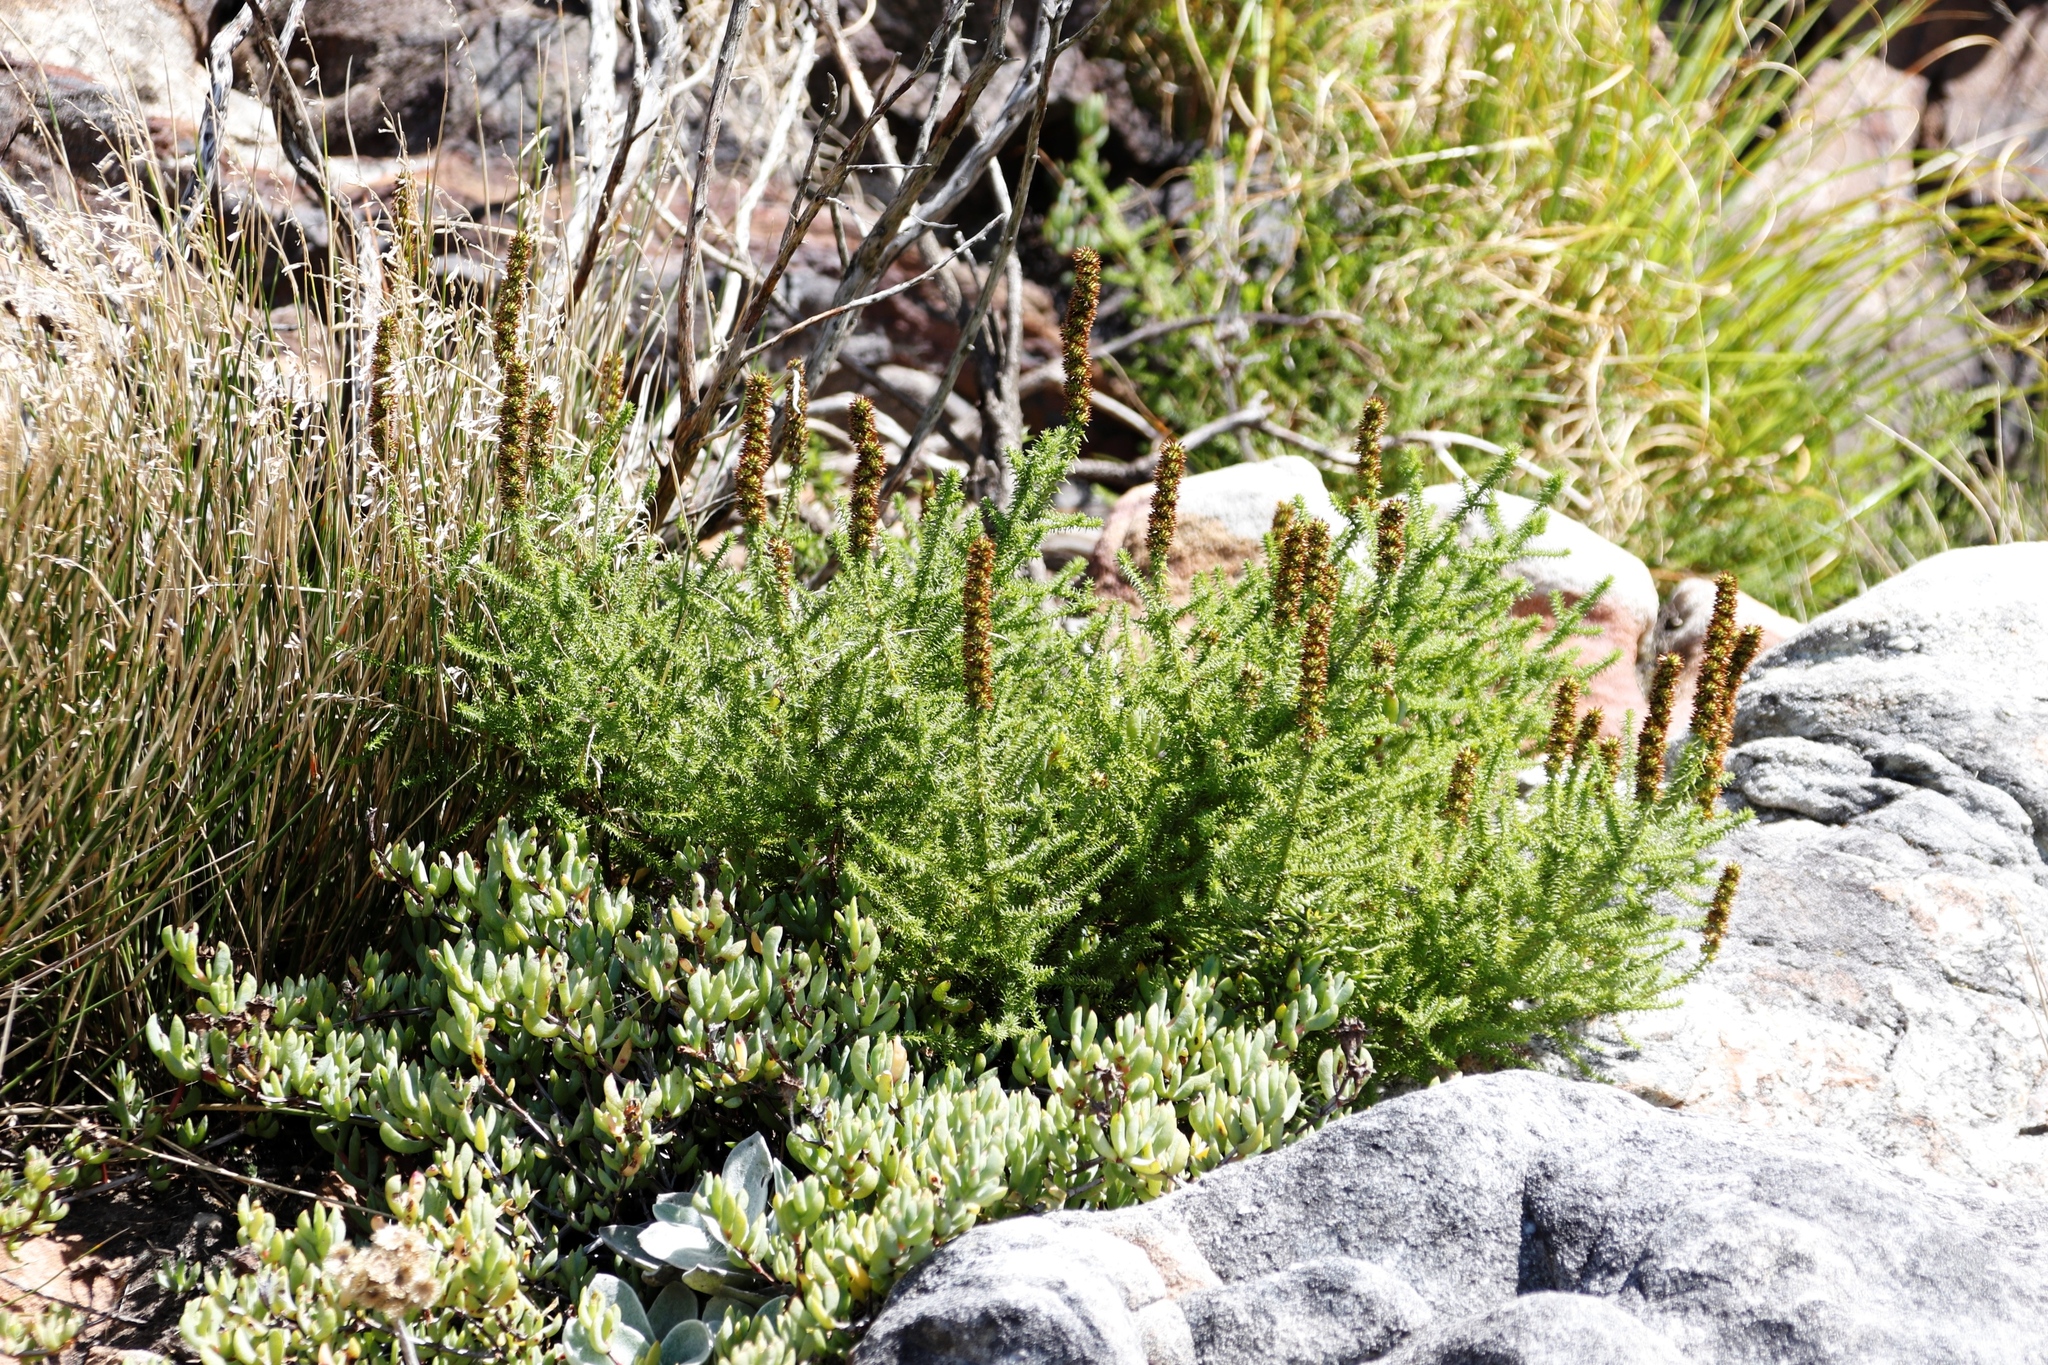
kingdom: Plantae
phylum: Tracheophyta
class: Magnoliopsida
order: Caryophyllales
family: Aizoaceae
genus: Oscularia
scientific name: Oscularia falciformis
